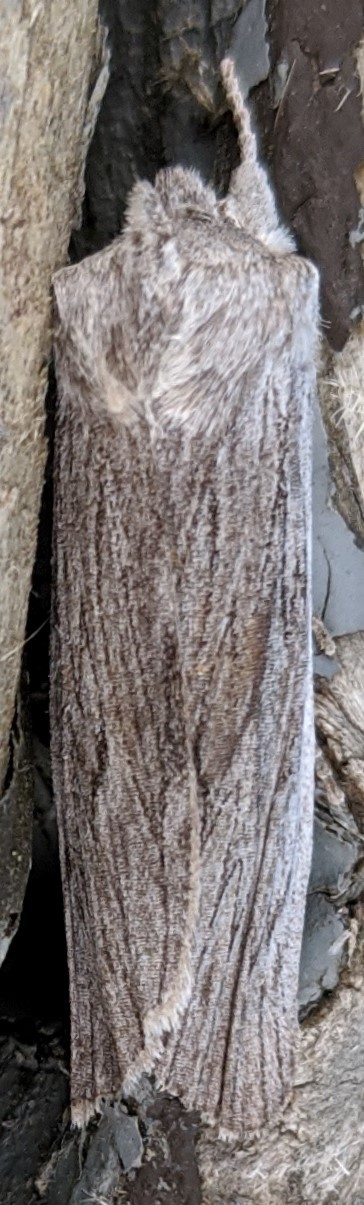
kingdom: Animalia
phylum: Arthropoda
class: Insecta
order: Lepidoptera
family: Noctuidae
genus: Lithophane
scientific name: Lithophane fagina
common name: Hoary pinion moth
